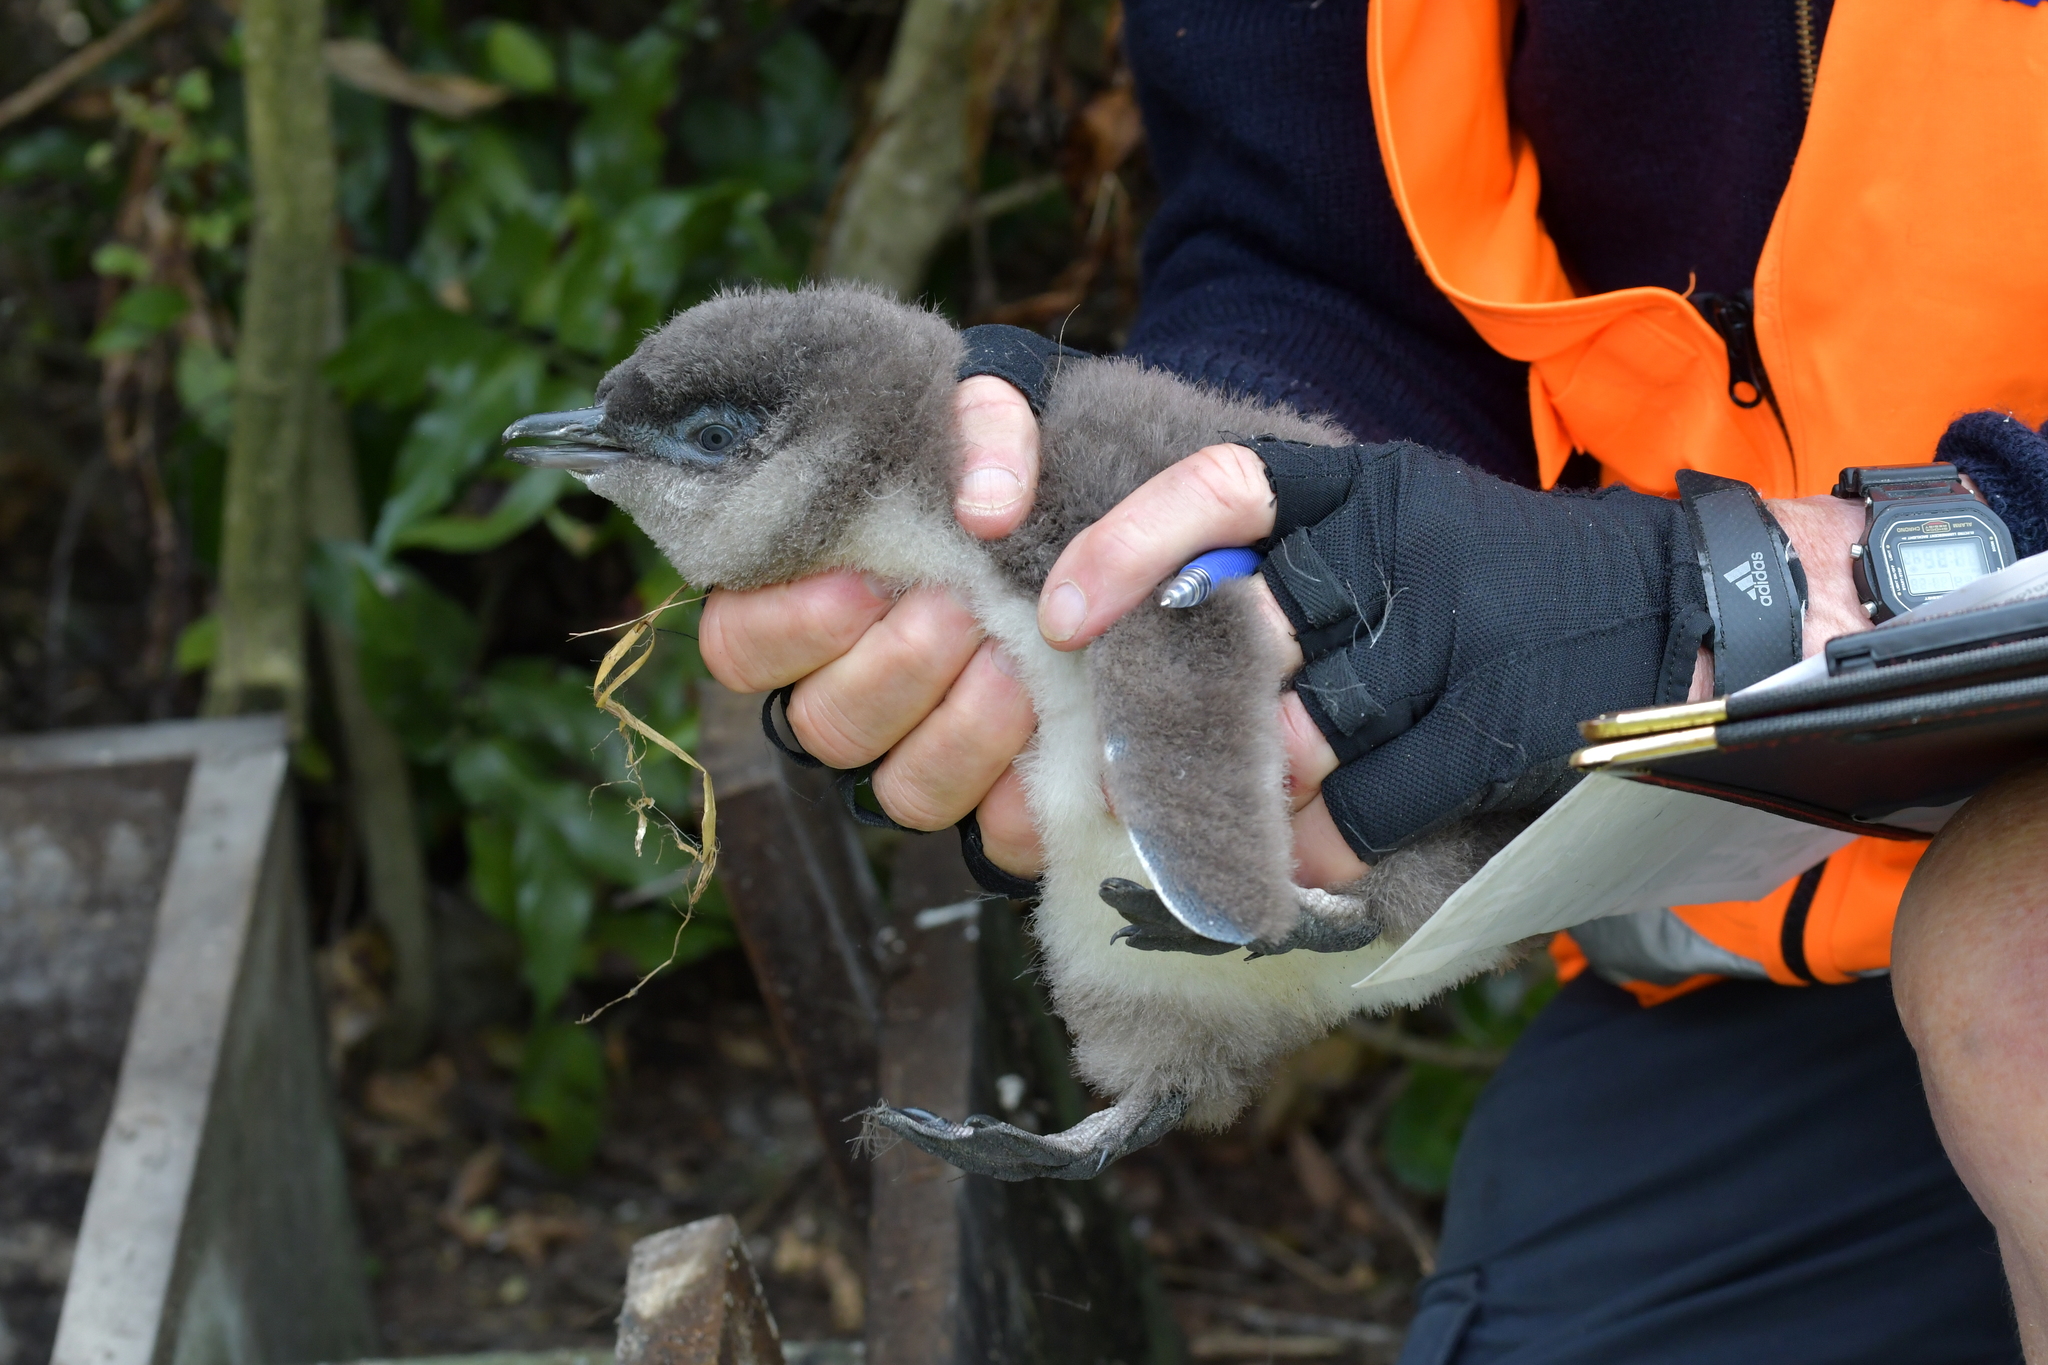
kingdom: Animalia
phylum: Chordata
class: Aves
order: Sphenisciformes
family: Spheniscidae
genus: Eudyptula
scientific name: Eudyptula minor
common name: Little penguin
